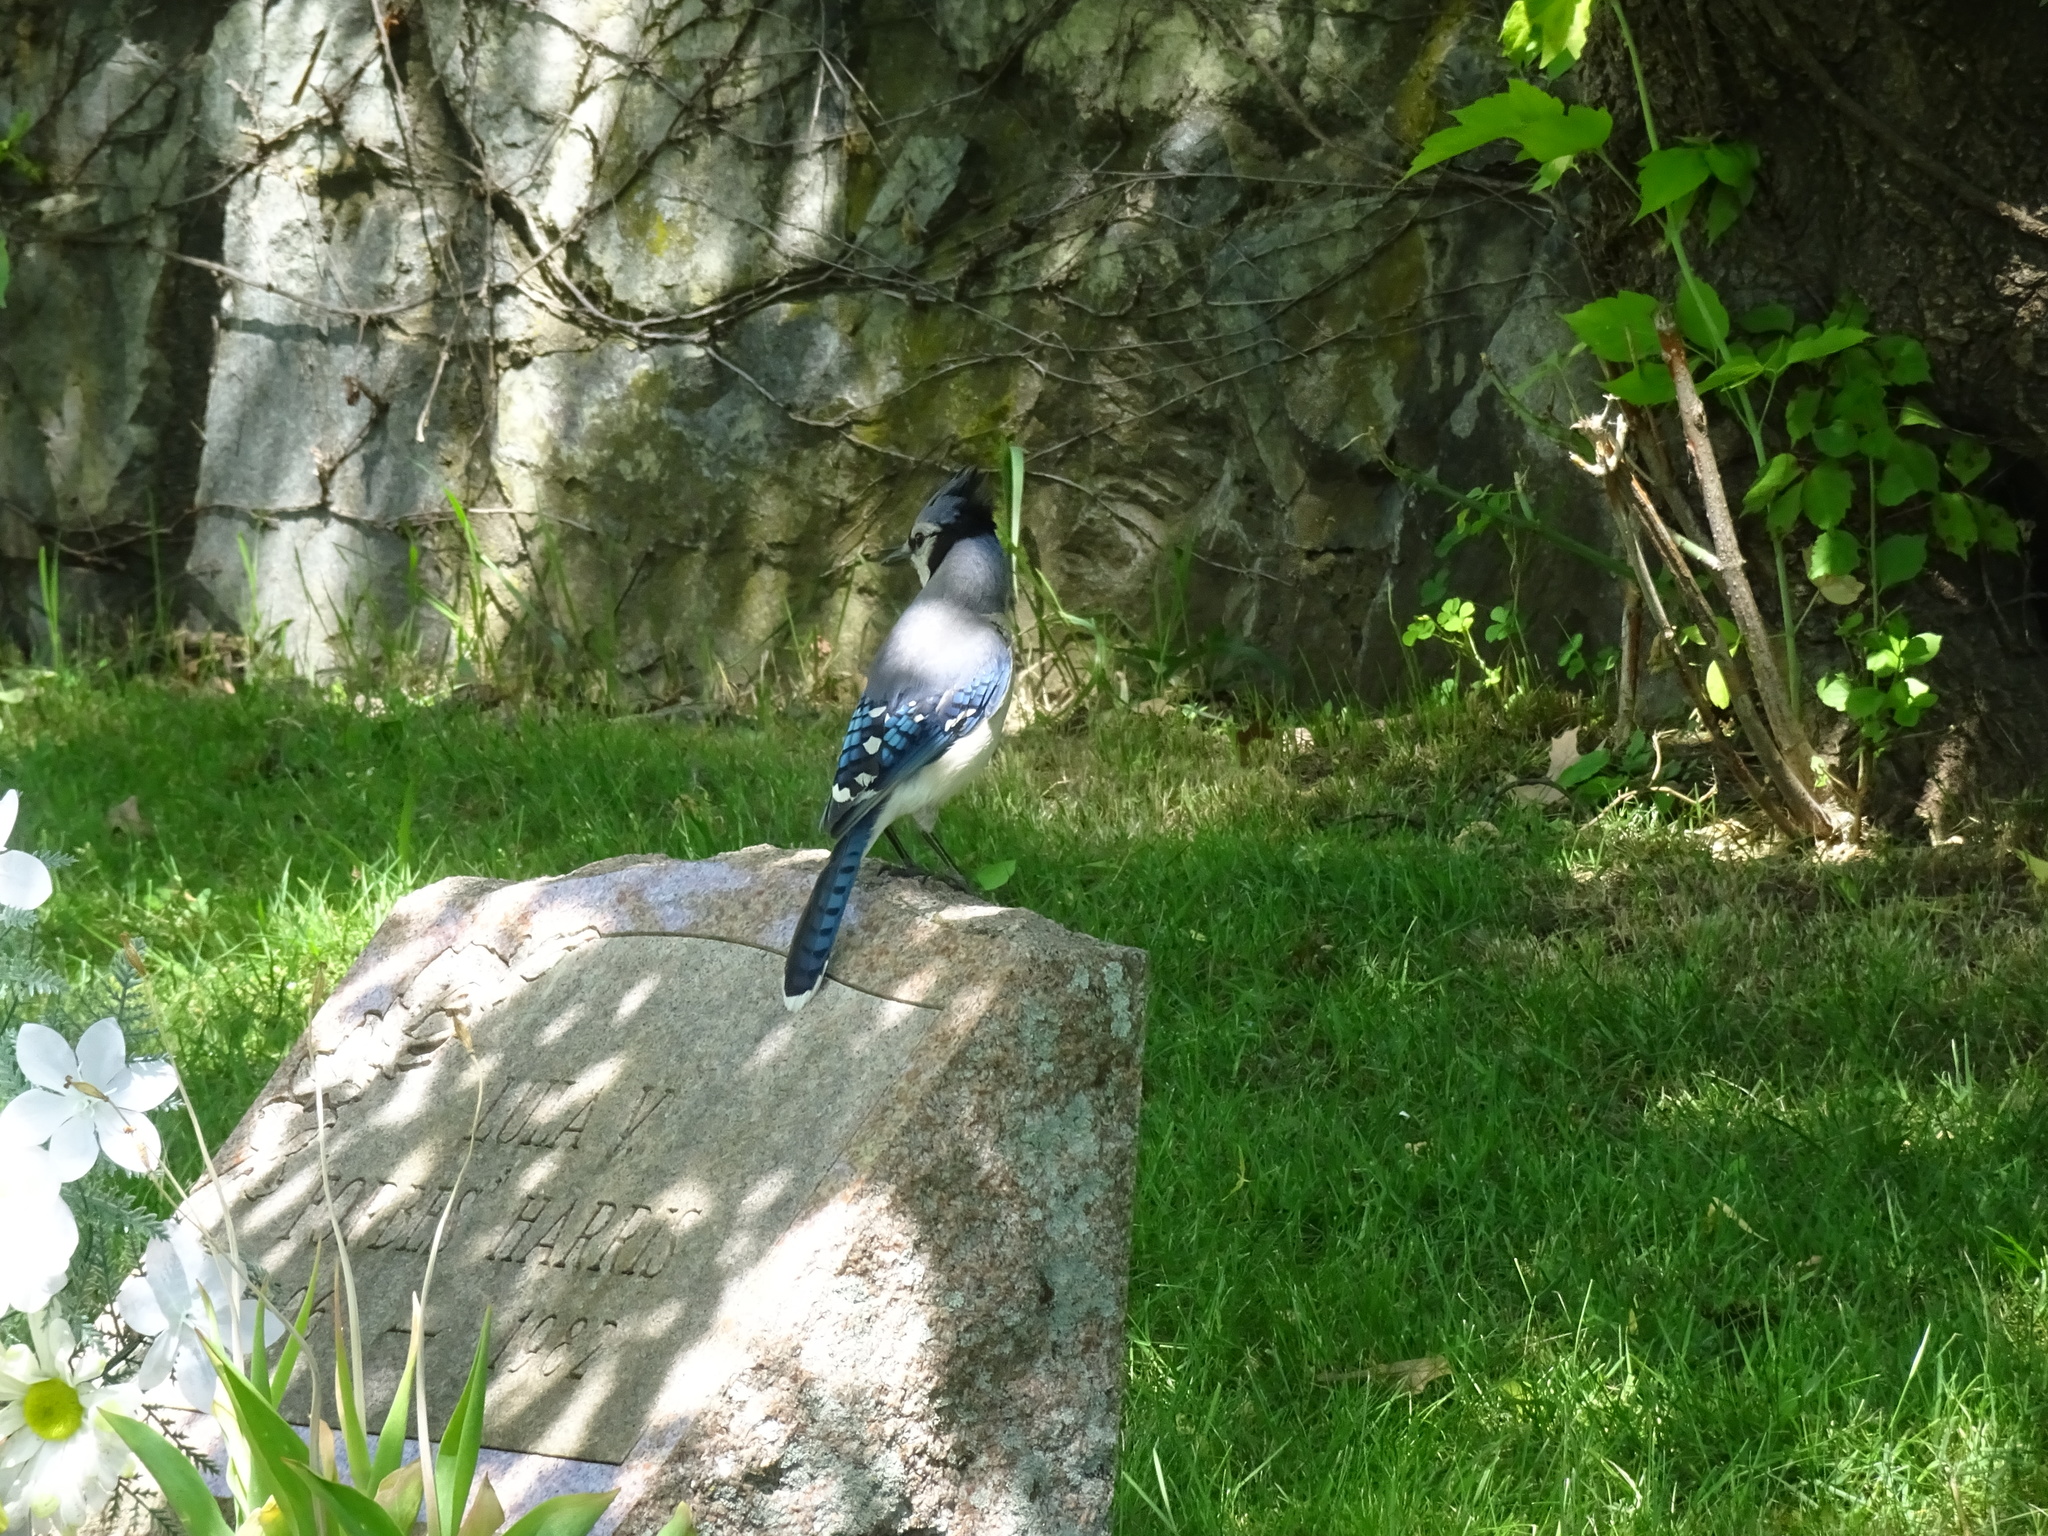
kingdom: Animalia
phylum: Chordata
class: Aves
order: Passeriformes
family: Corvidae
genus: Cyanocitta
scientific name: Cyanocitta cristata
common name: Blue jay
